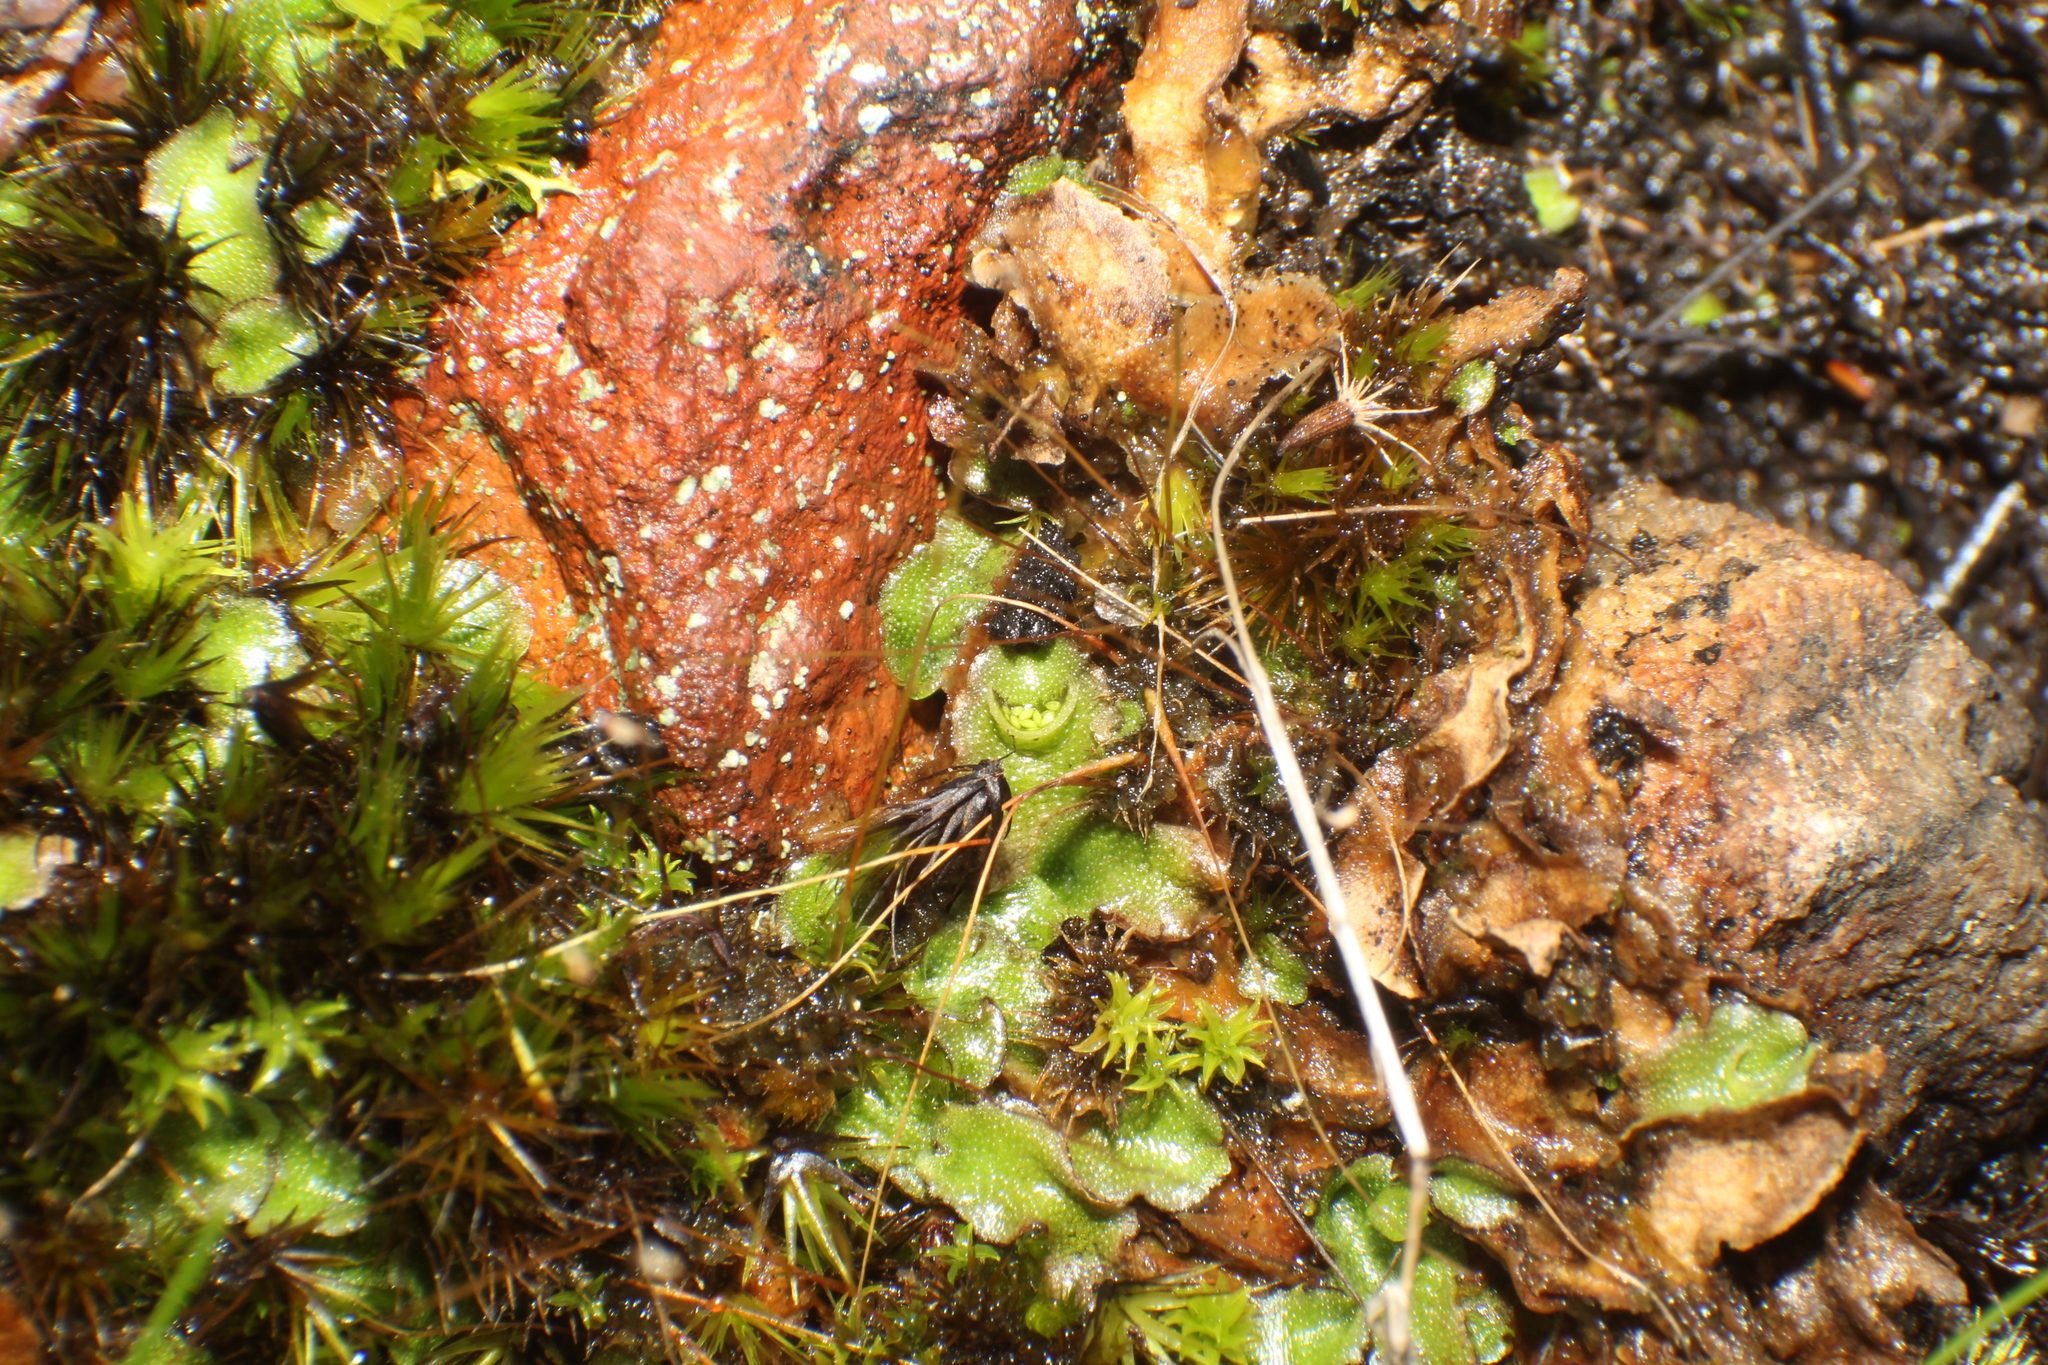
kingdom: Plantae
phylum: Marchantiophyta
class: Marchantiopsida
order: Lunulariales
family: Lunulariaceae
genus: Lunularia
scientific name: Lunularia cruciata
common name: Crescent-cup liverwort
